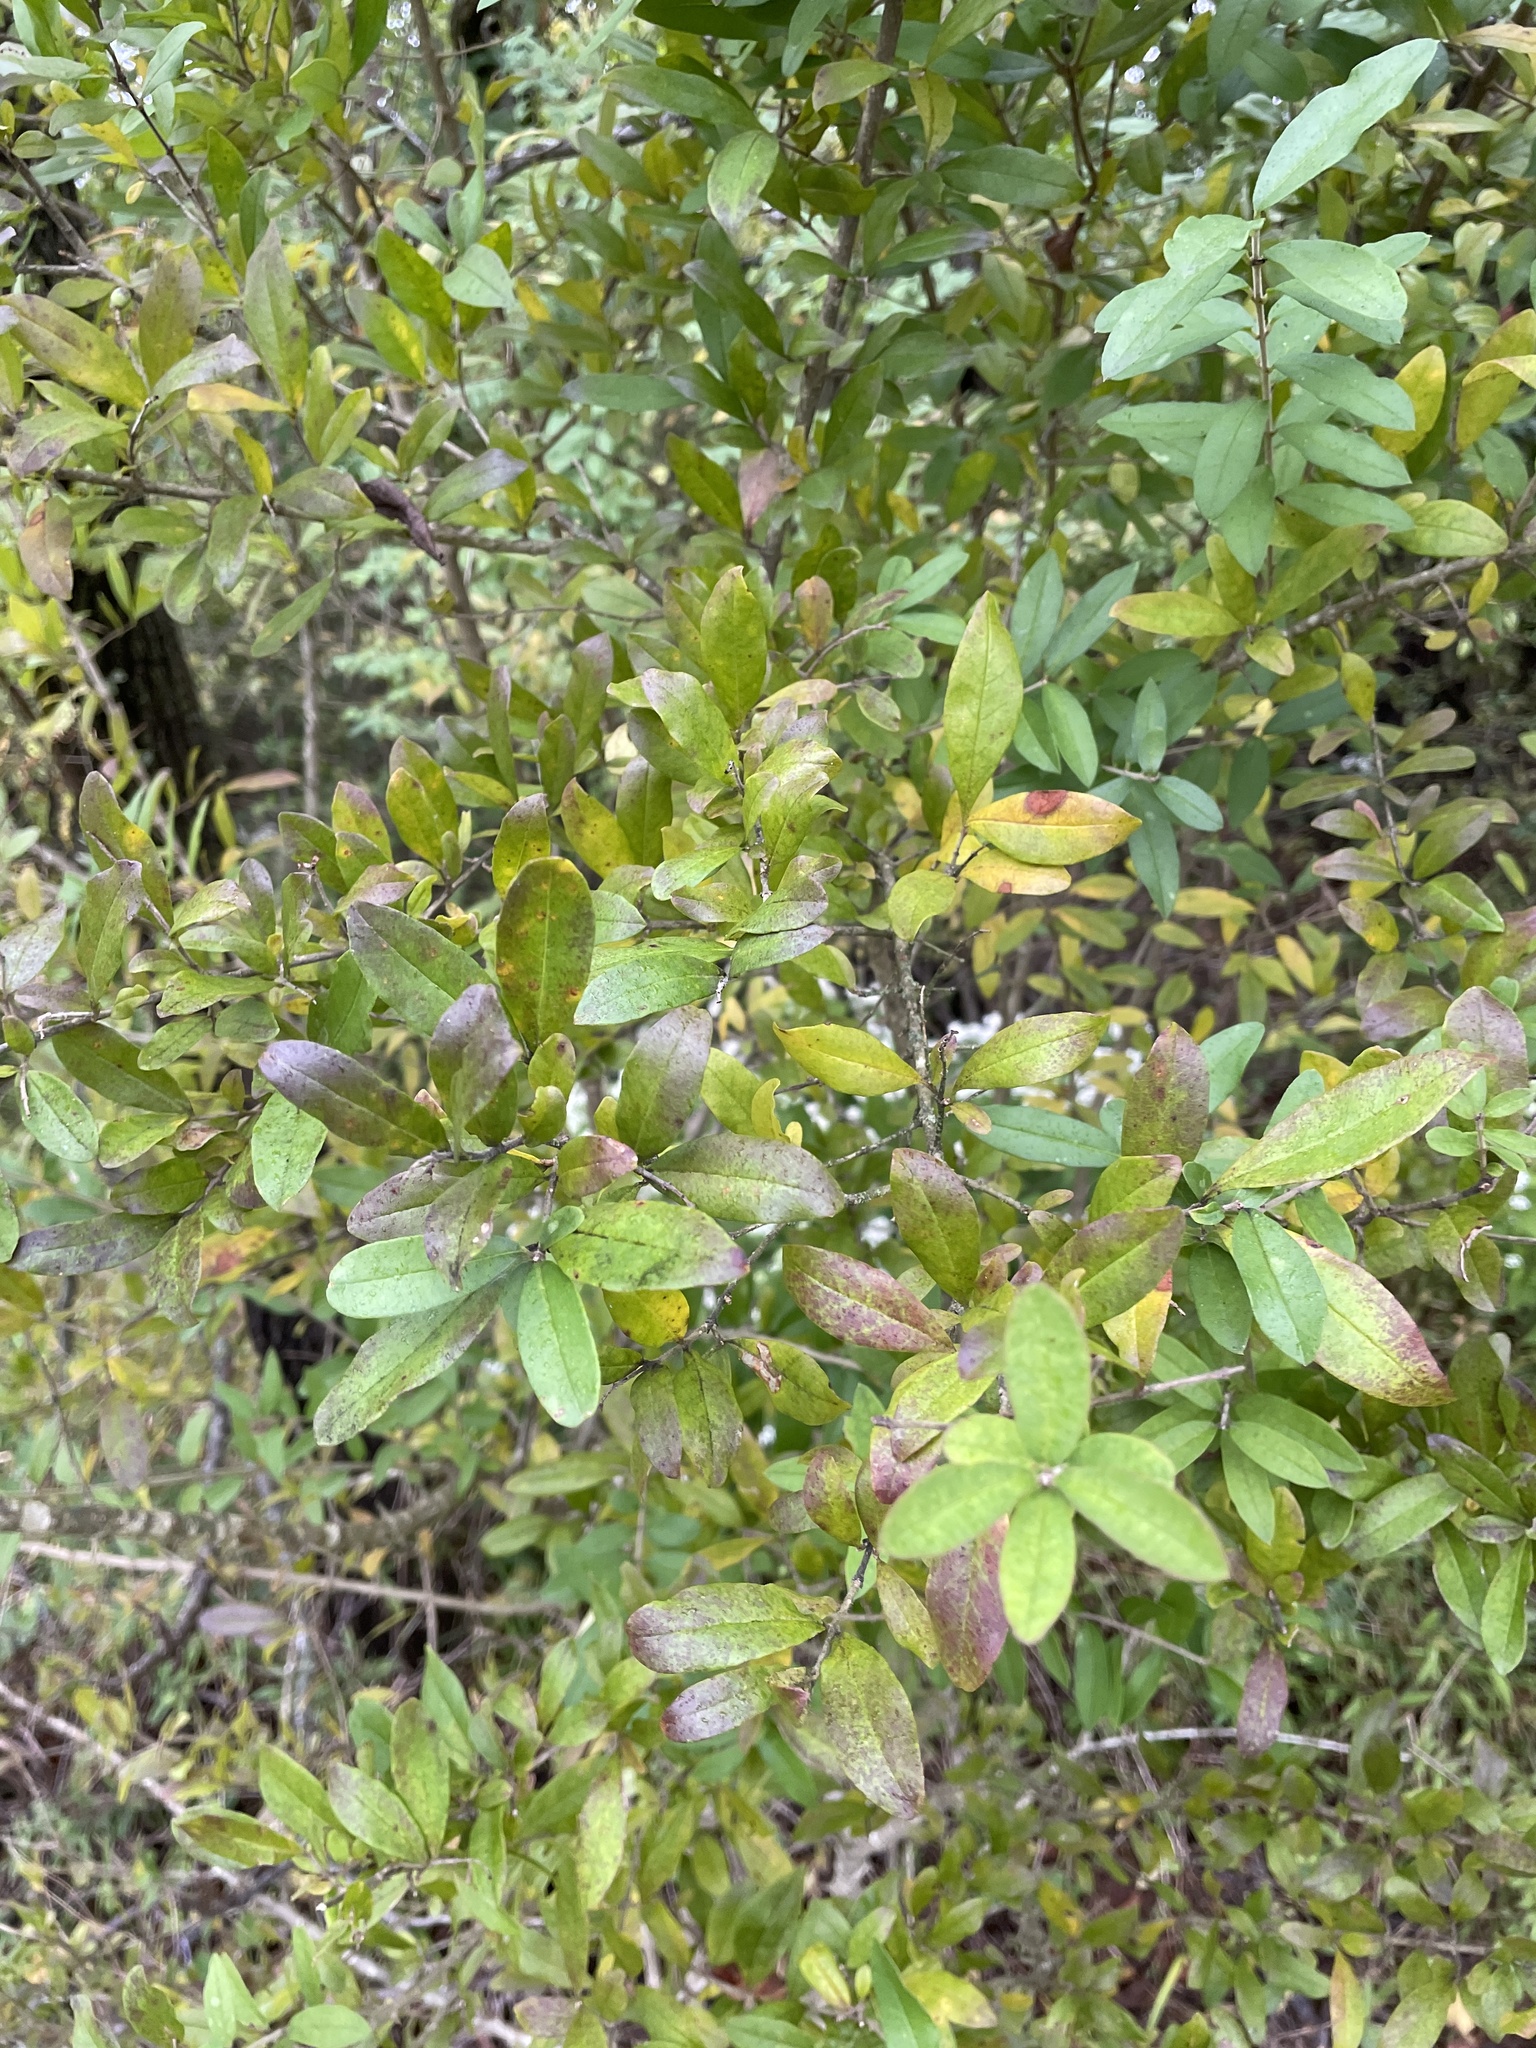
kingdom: Plantae
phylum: Tracheophyta
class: Magnoliopsida
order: Lamiales
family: Oleaceae
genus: Ligustrum
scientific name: Ligustrum obtusifolium
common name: Border privet
